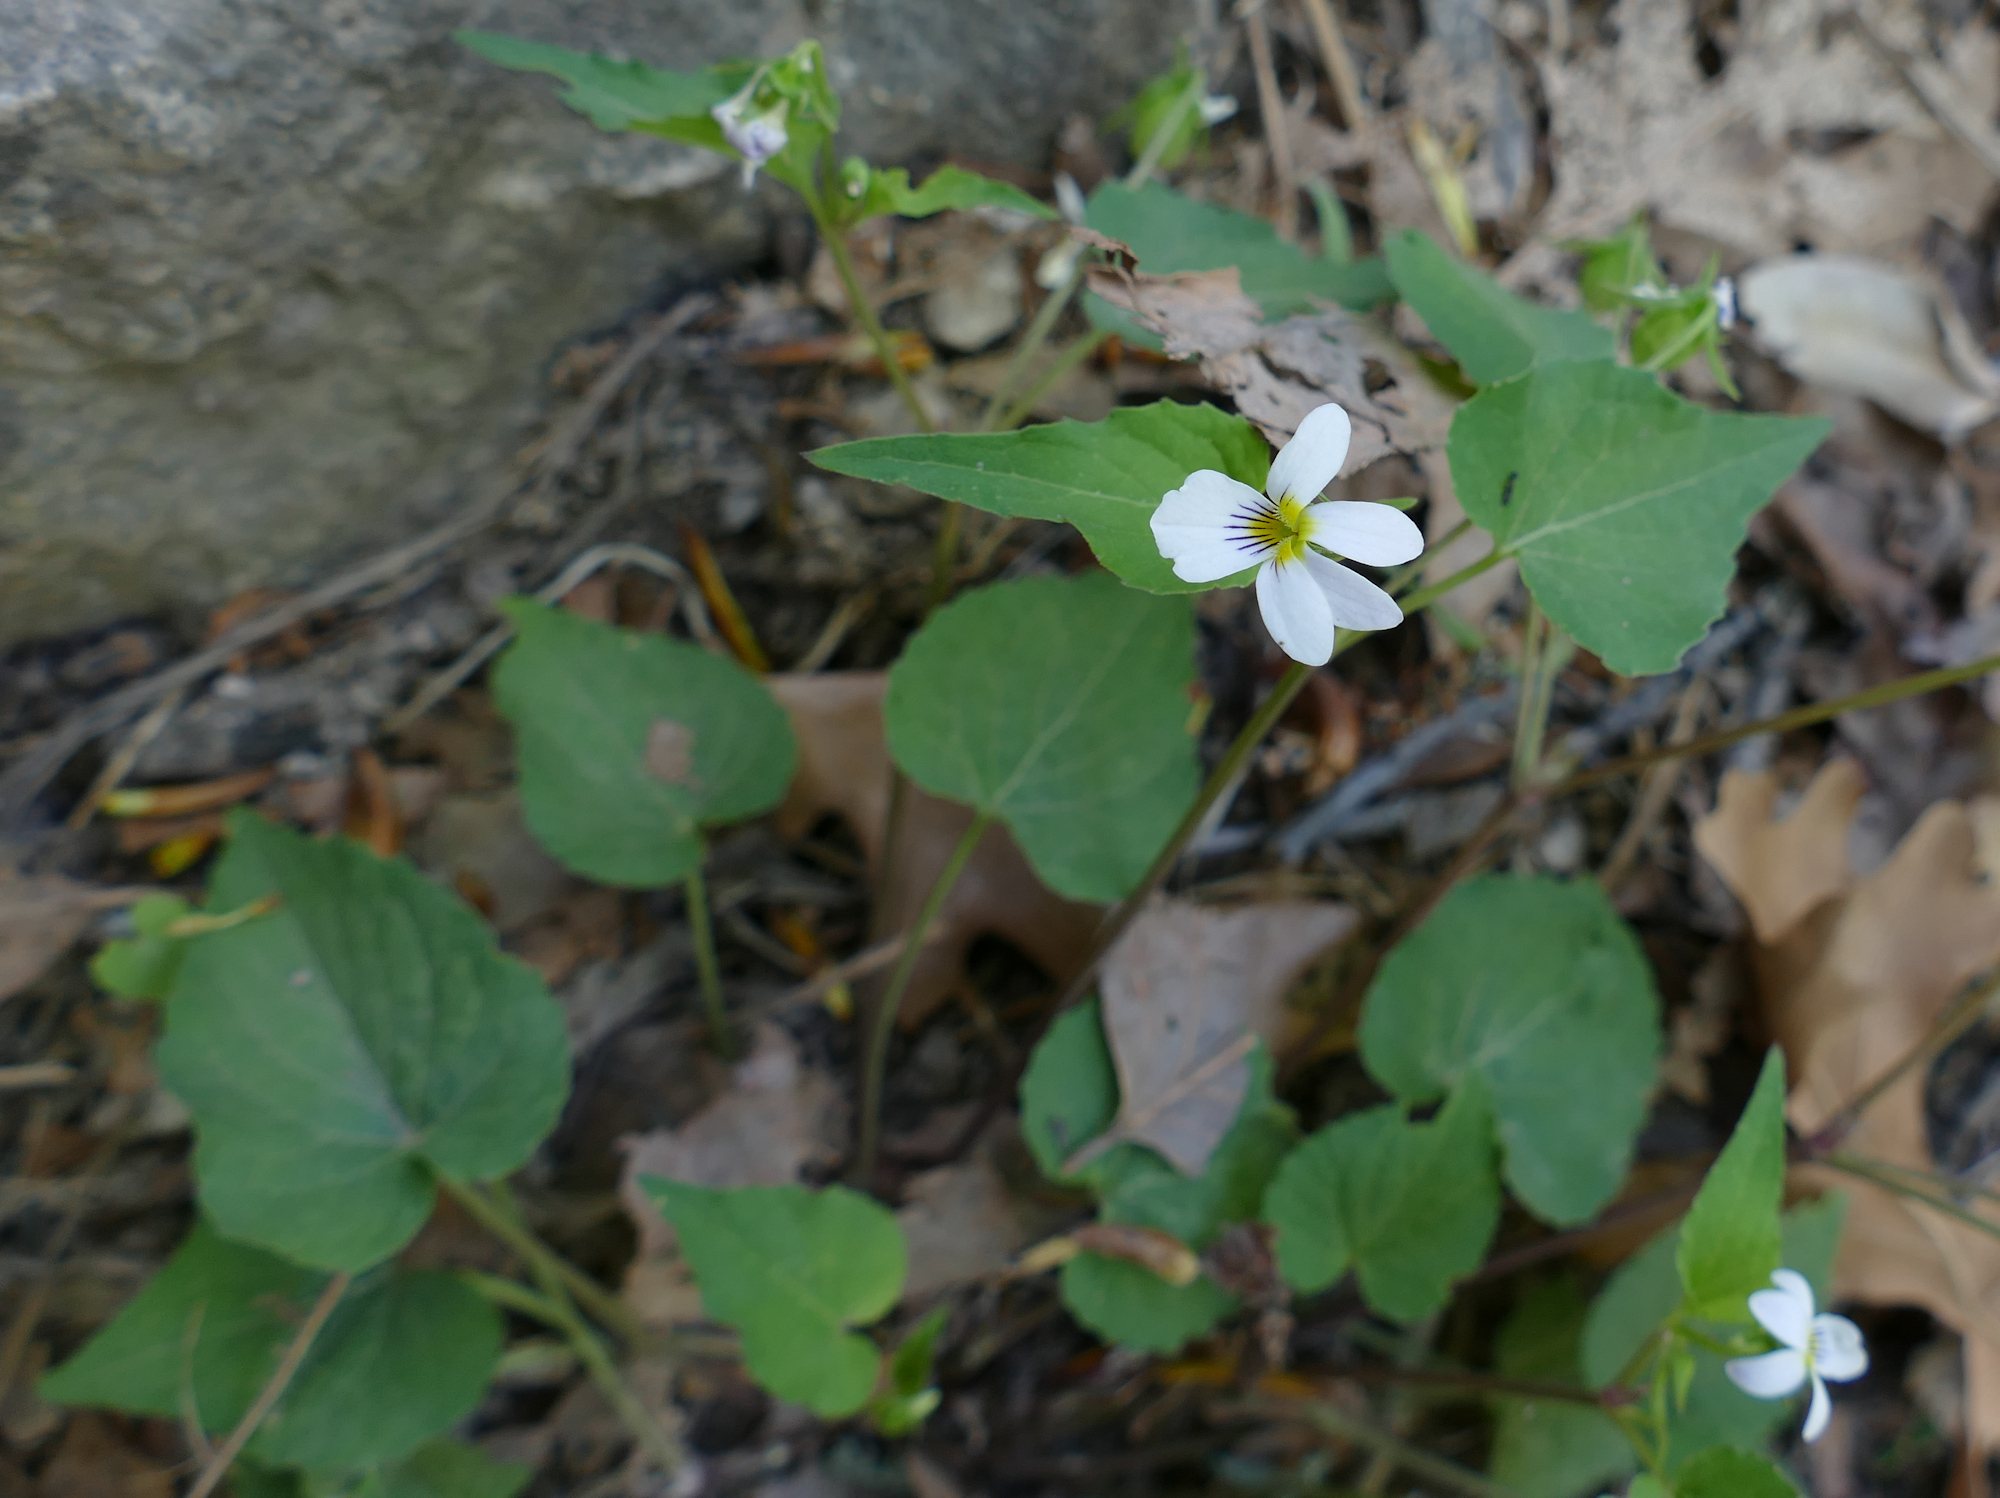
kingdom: Plantae
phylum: Tracheophyta
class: Magnoliopsida
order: Malpighiales
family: Violaceae
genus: Viola
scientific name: Viola canadensis
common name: Canada violet
